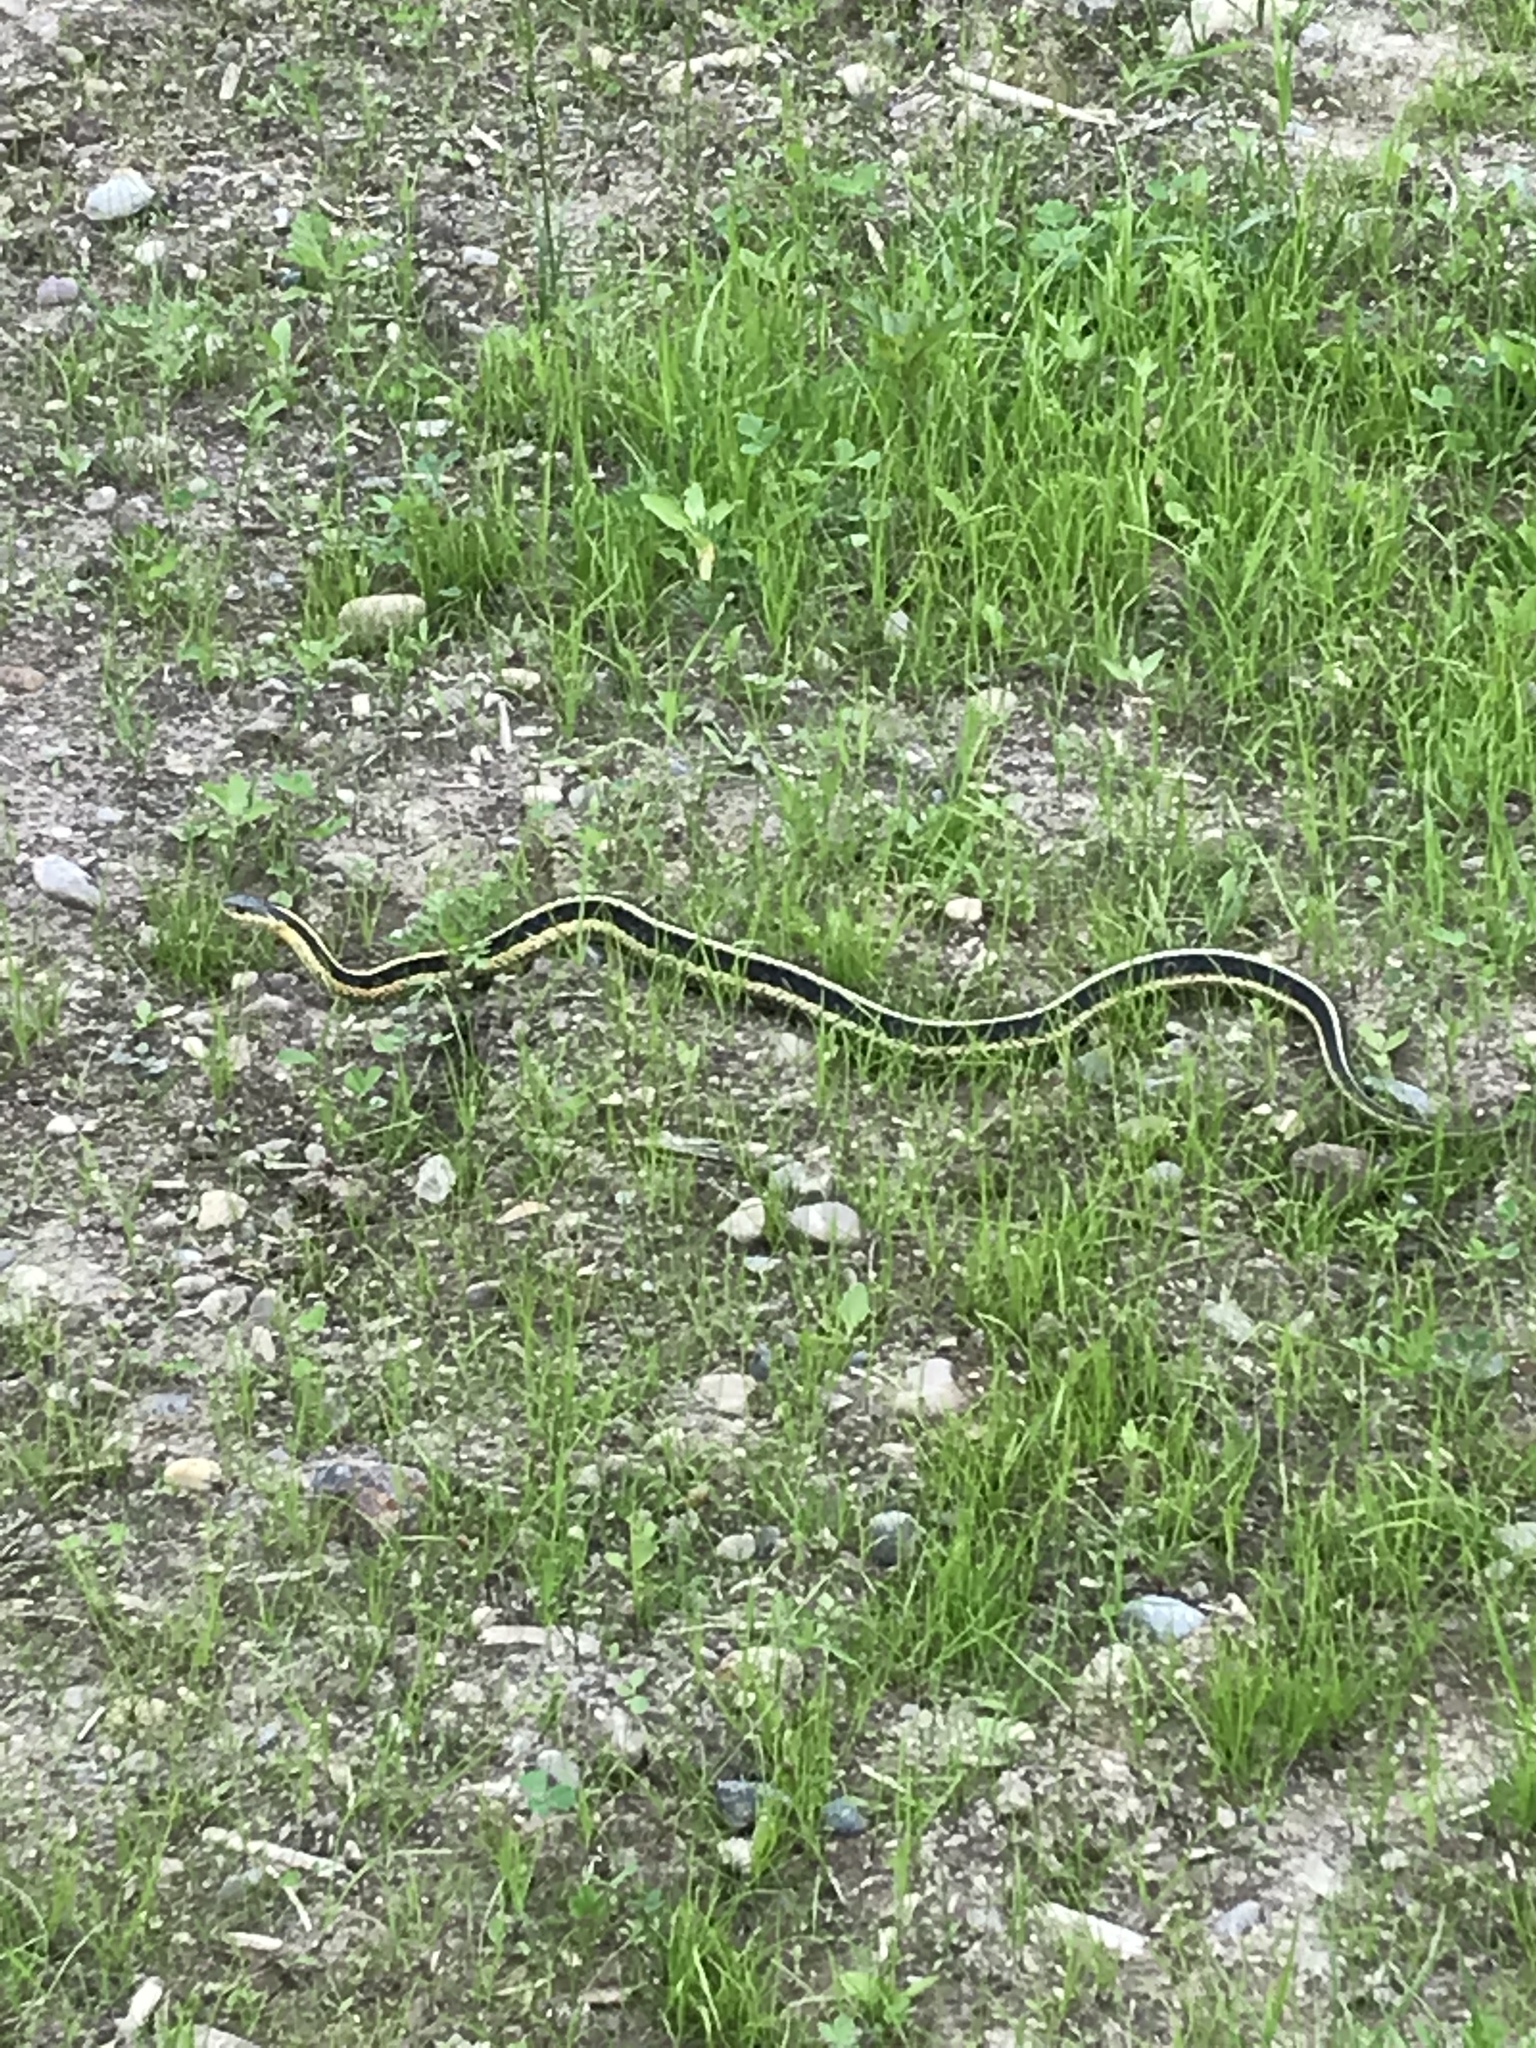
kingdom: Animalia
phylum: Chordata
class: Squamata
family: Colubridae
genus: Thamnophis
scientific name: Thamnophis sirtalis
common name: Common garter snake
